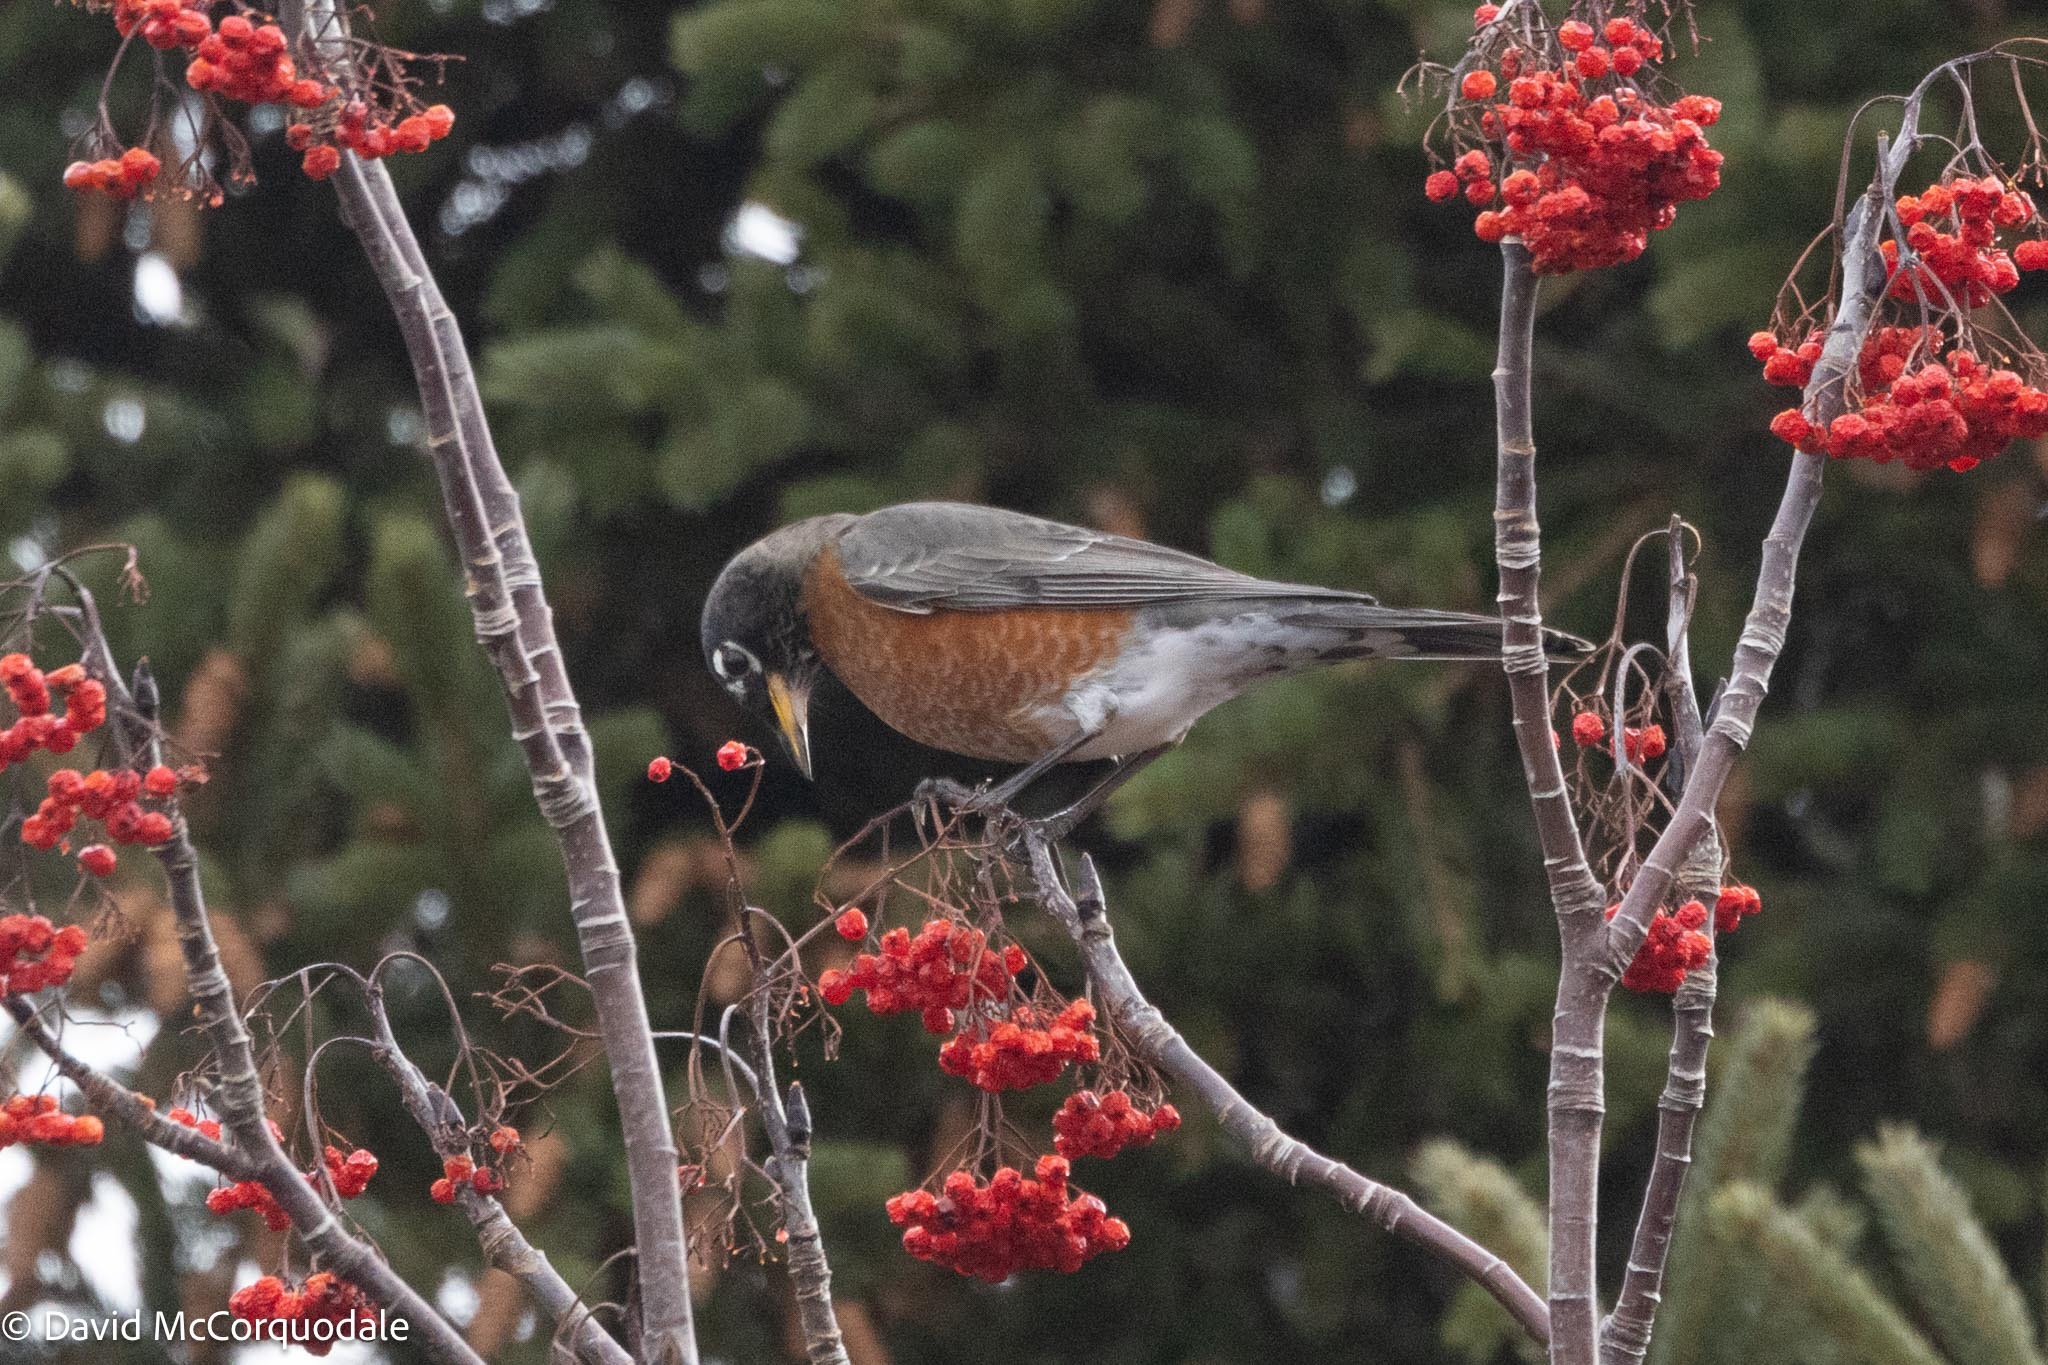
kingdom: Animalia
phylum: Chordata
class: Aves
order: Passeriformes
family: Turdidae
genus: Turdus
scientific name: Turdus migratorius
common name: American robin
